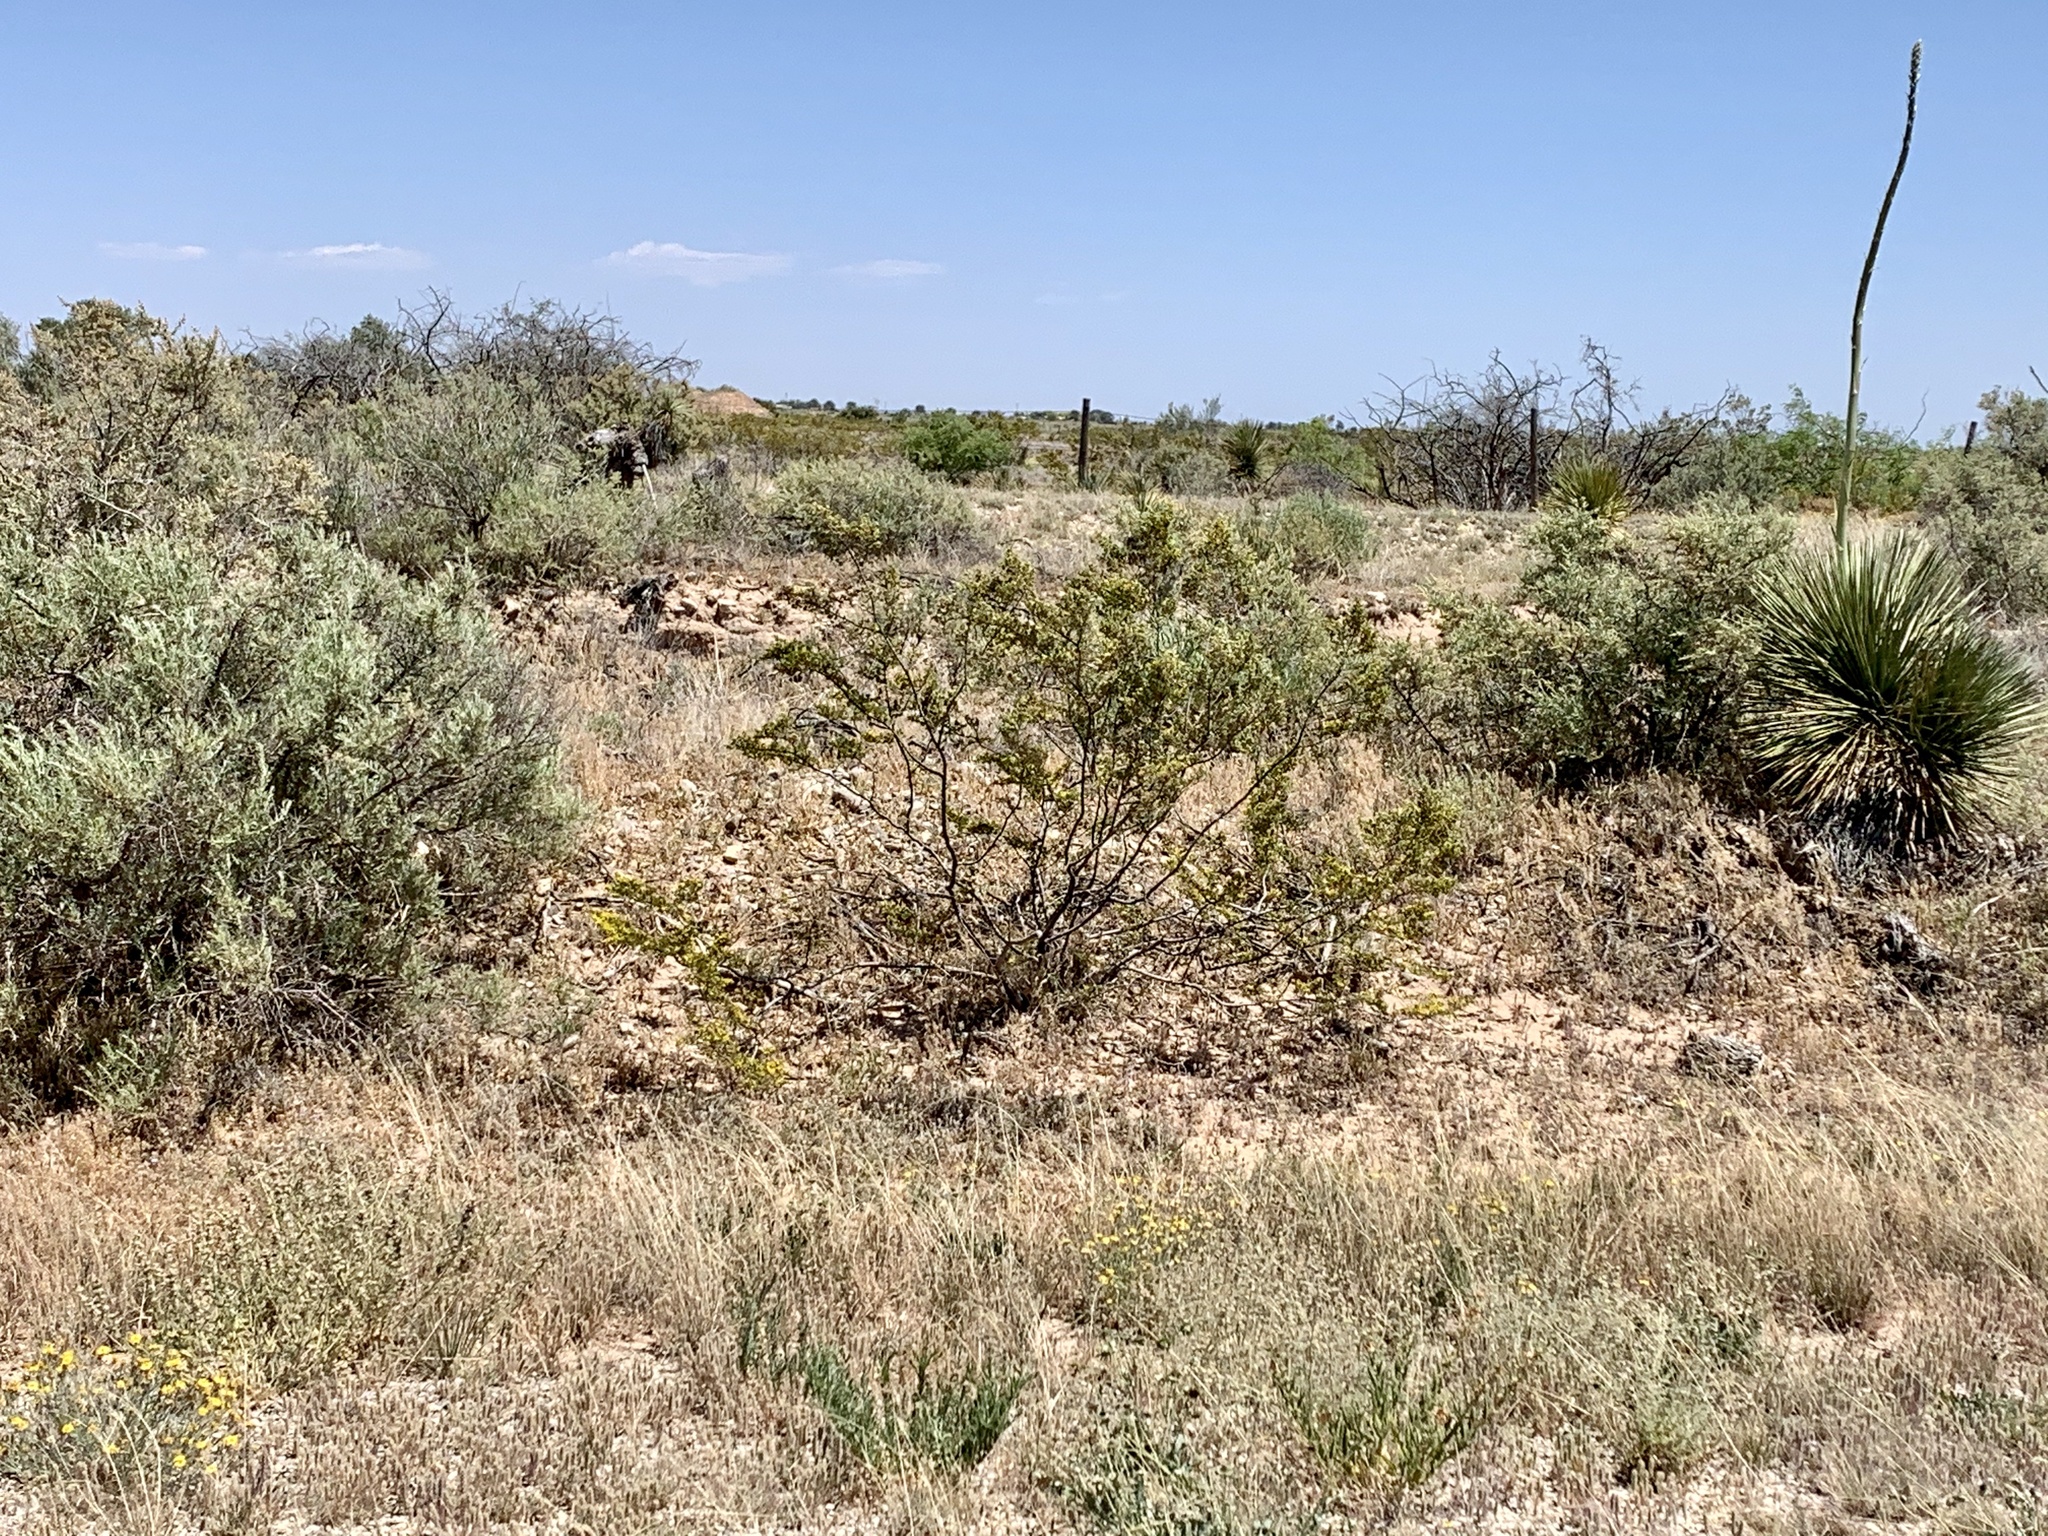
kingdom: Plantae
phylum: Tracheophyta
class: Magnoliopsida
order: Zygophyllales
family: Zygophyllaceae
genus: Larrea
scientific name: Larrea tridentata
